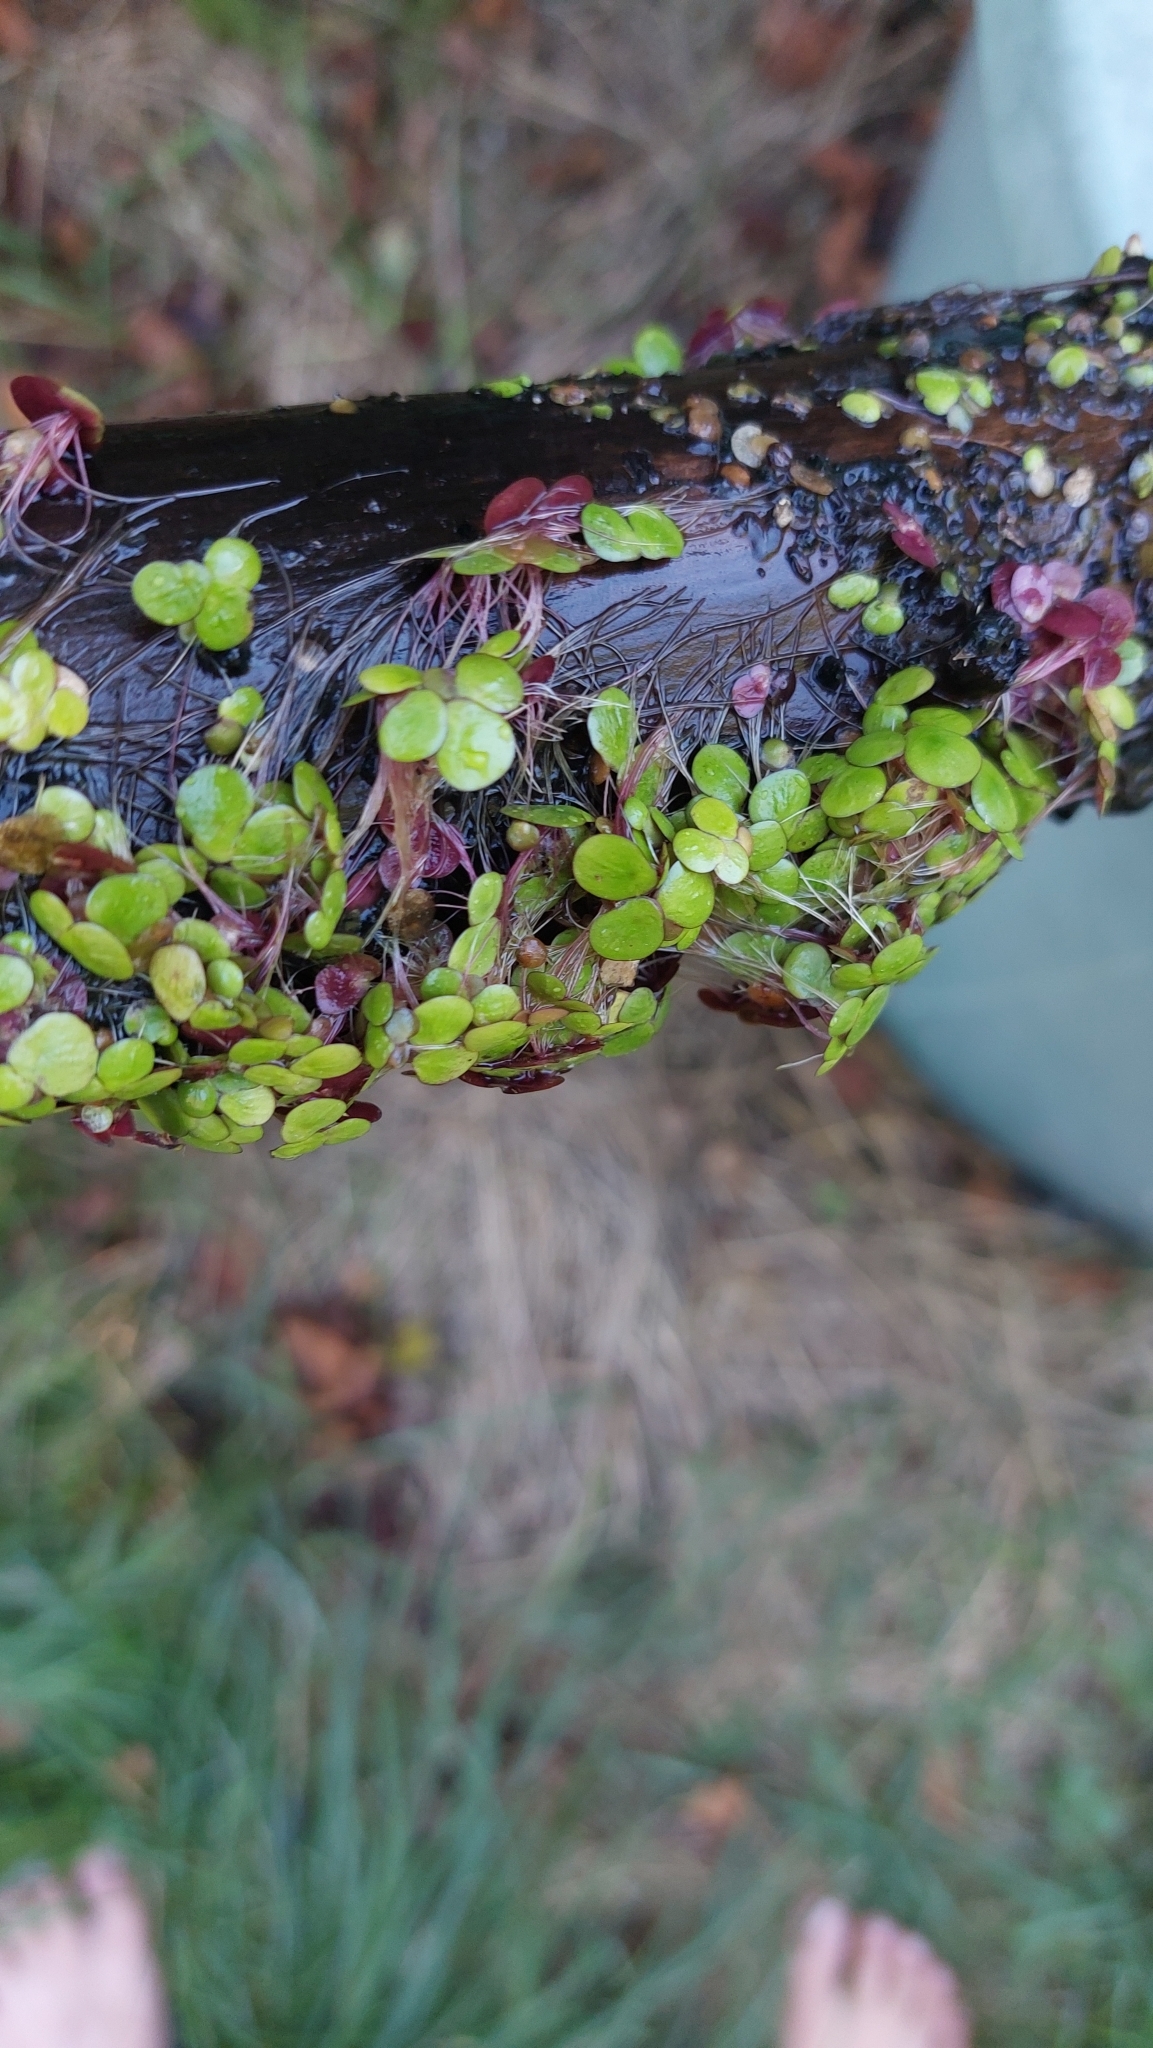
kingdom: Plantae
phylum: Tracheophyta
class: Liliopsida
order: Alismatales
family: Araceae
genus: Spirodela
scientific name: Spirodela polyrhiza
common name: Great duckweed
